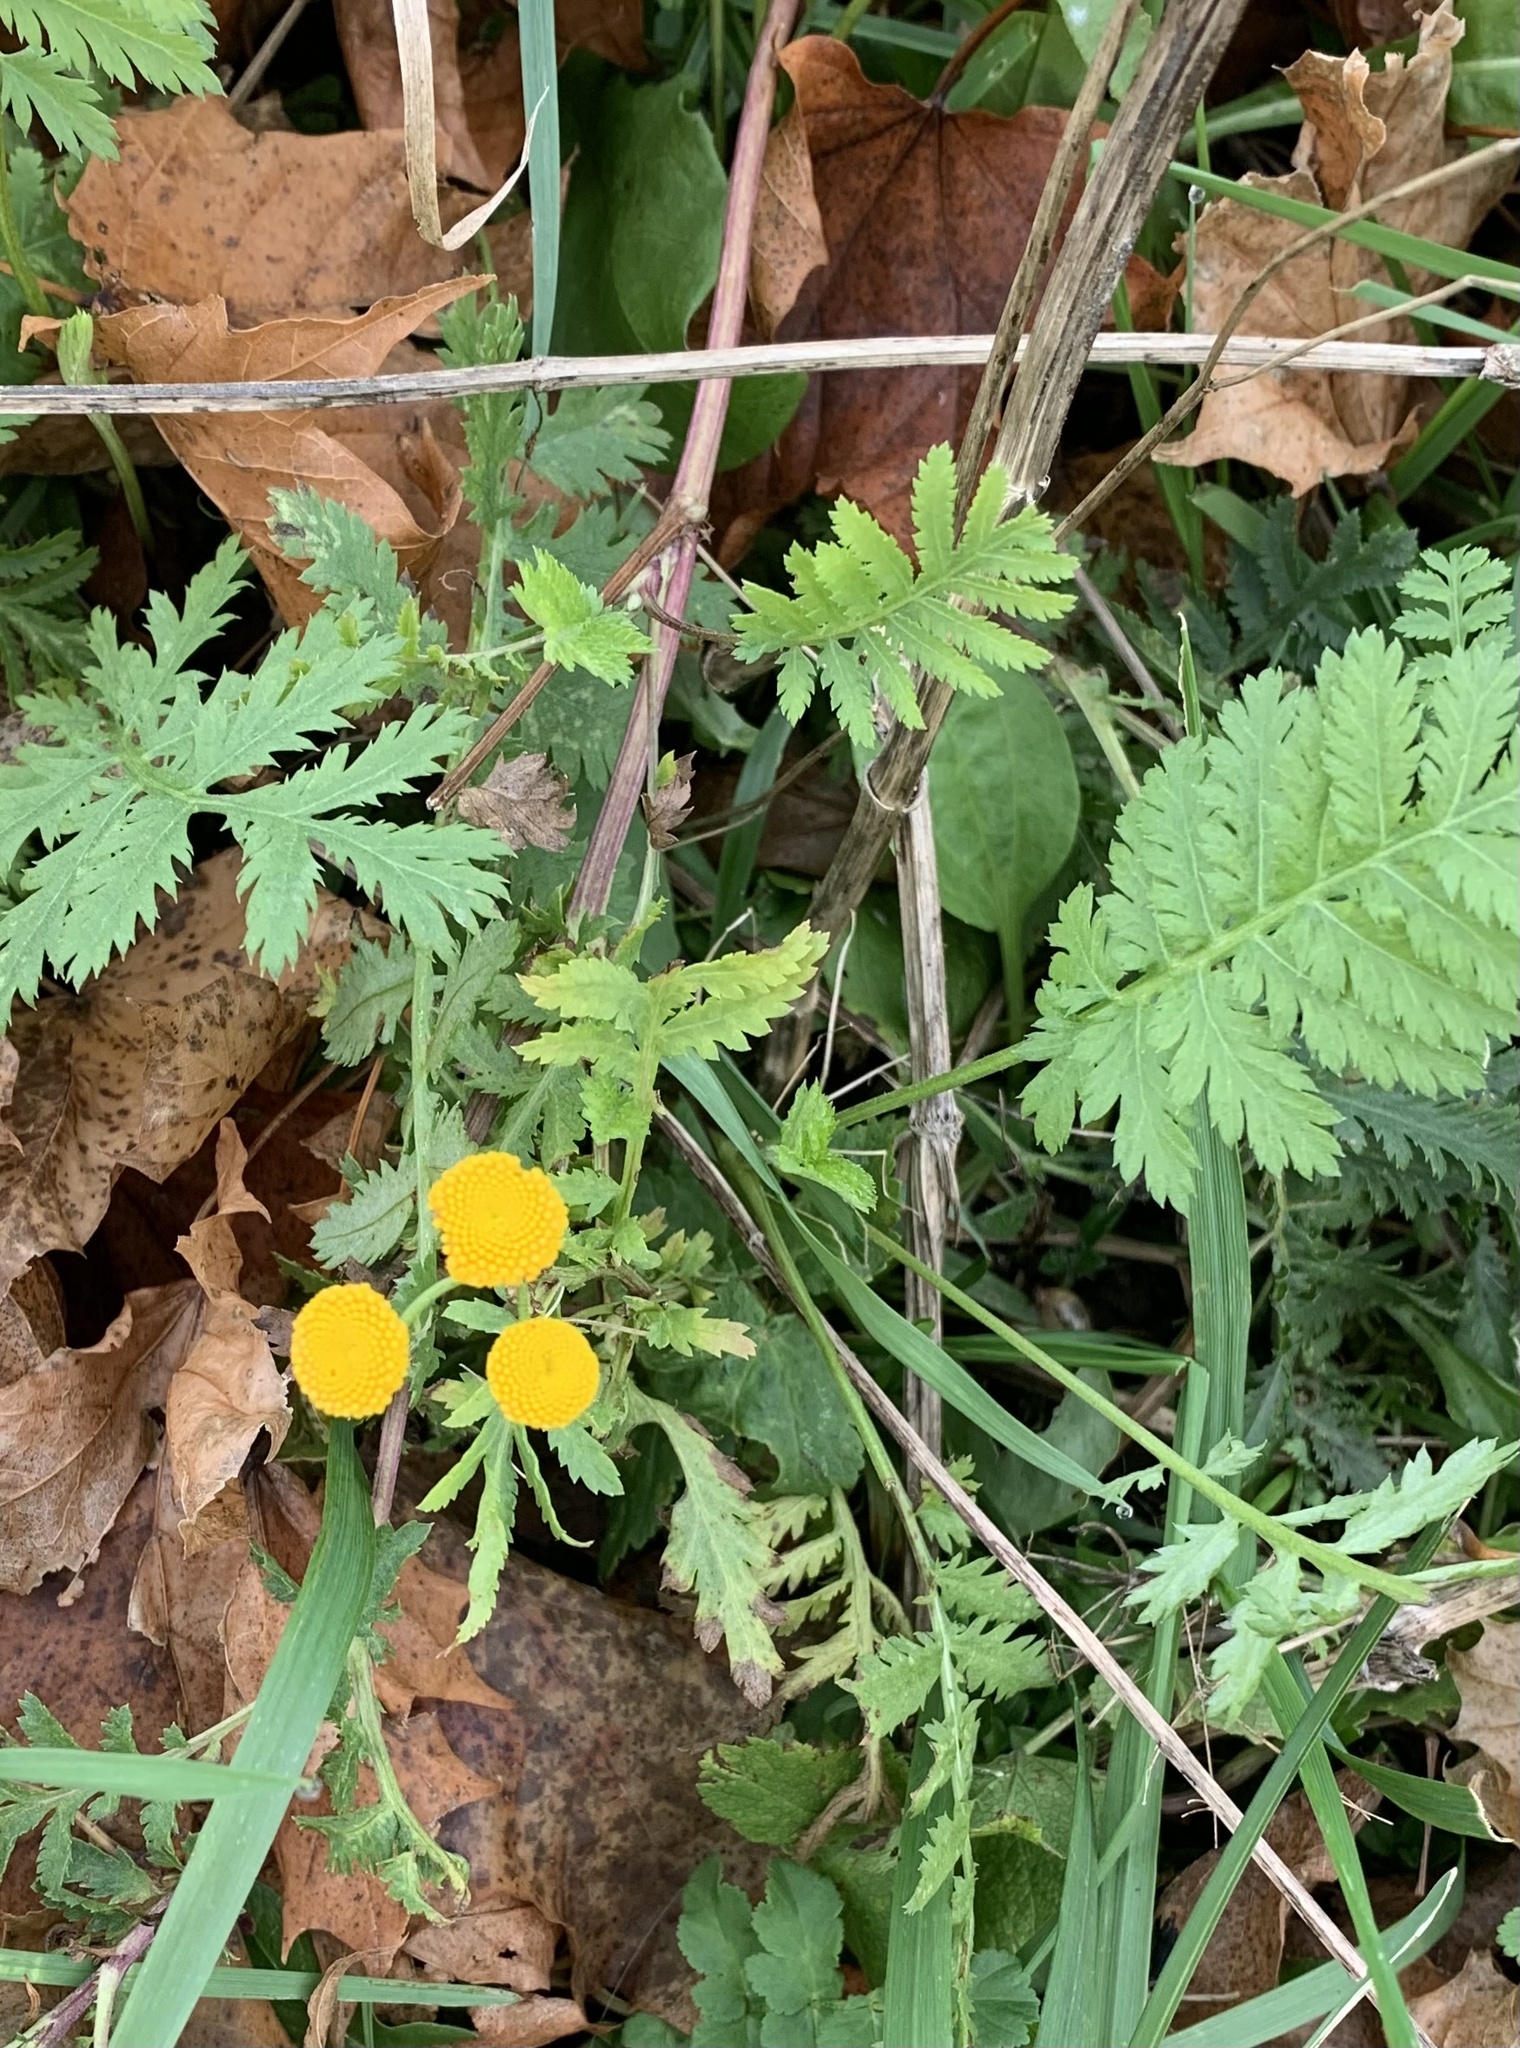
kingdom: Plantae
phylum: Tracheophyta
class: Magnoliopsida
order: Asterales
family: Asteraceae
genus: Tanacetum
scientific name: Tanacetum vulgare
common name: Common tansy
